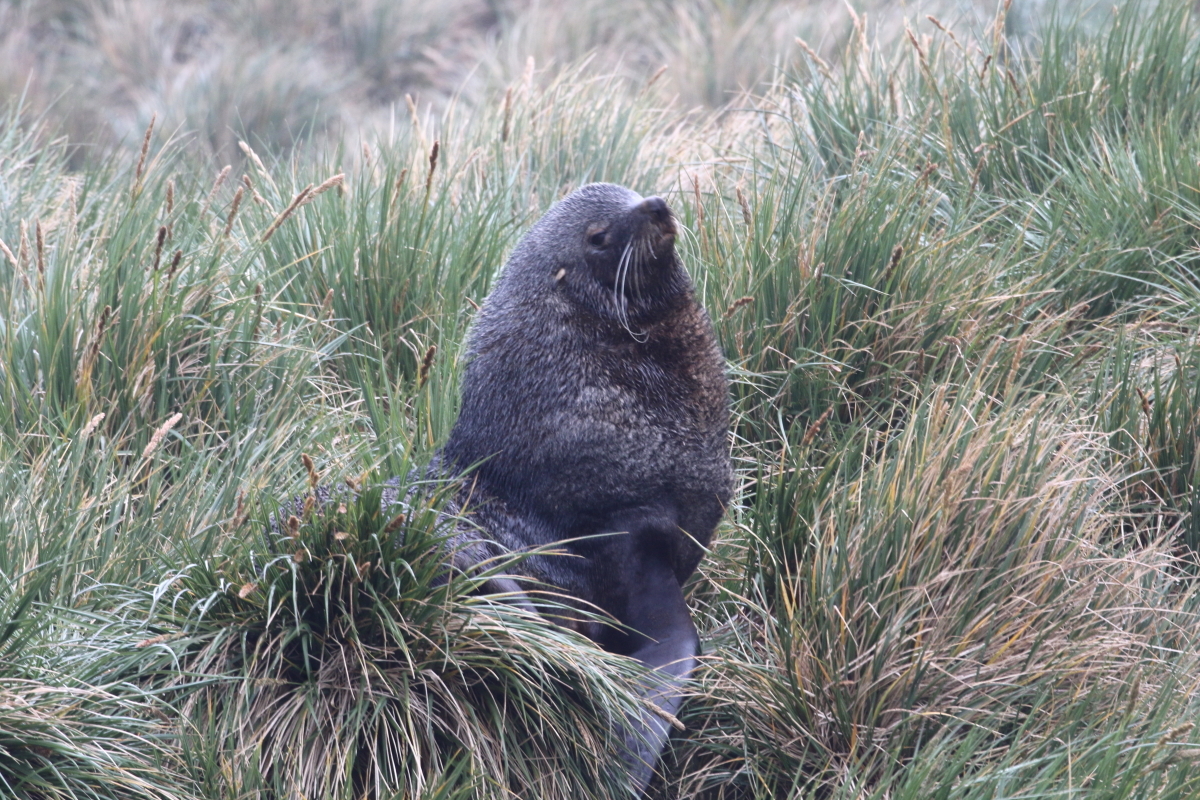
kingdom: Plantae
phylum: Tracheophyta
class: Liliopsida
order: Poales
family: Poaceae
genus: Poa
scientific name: Poa flabellata
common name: Tussac-grass
